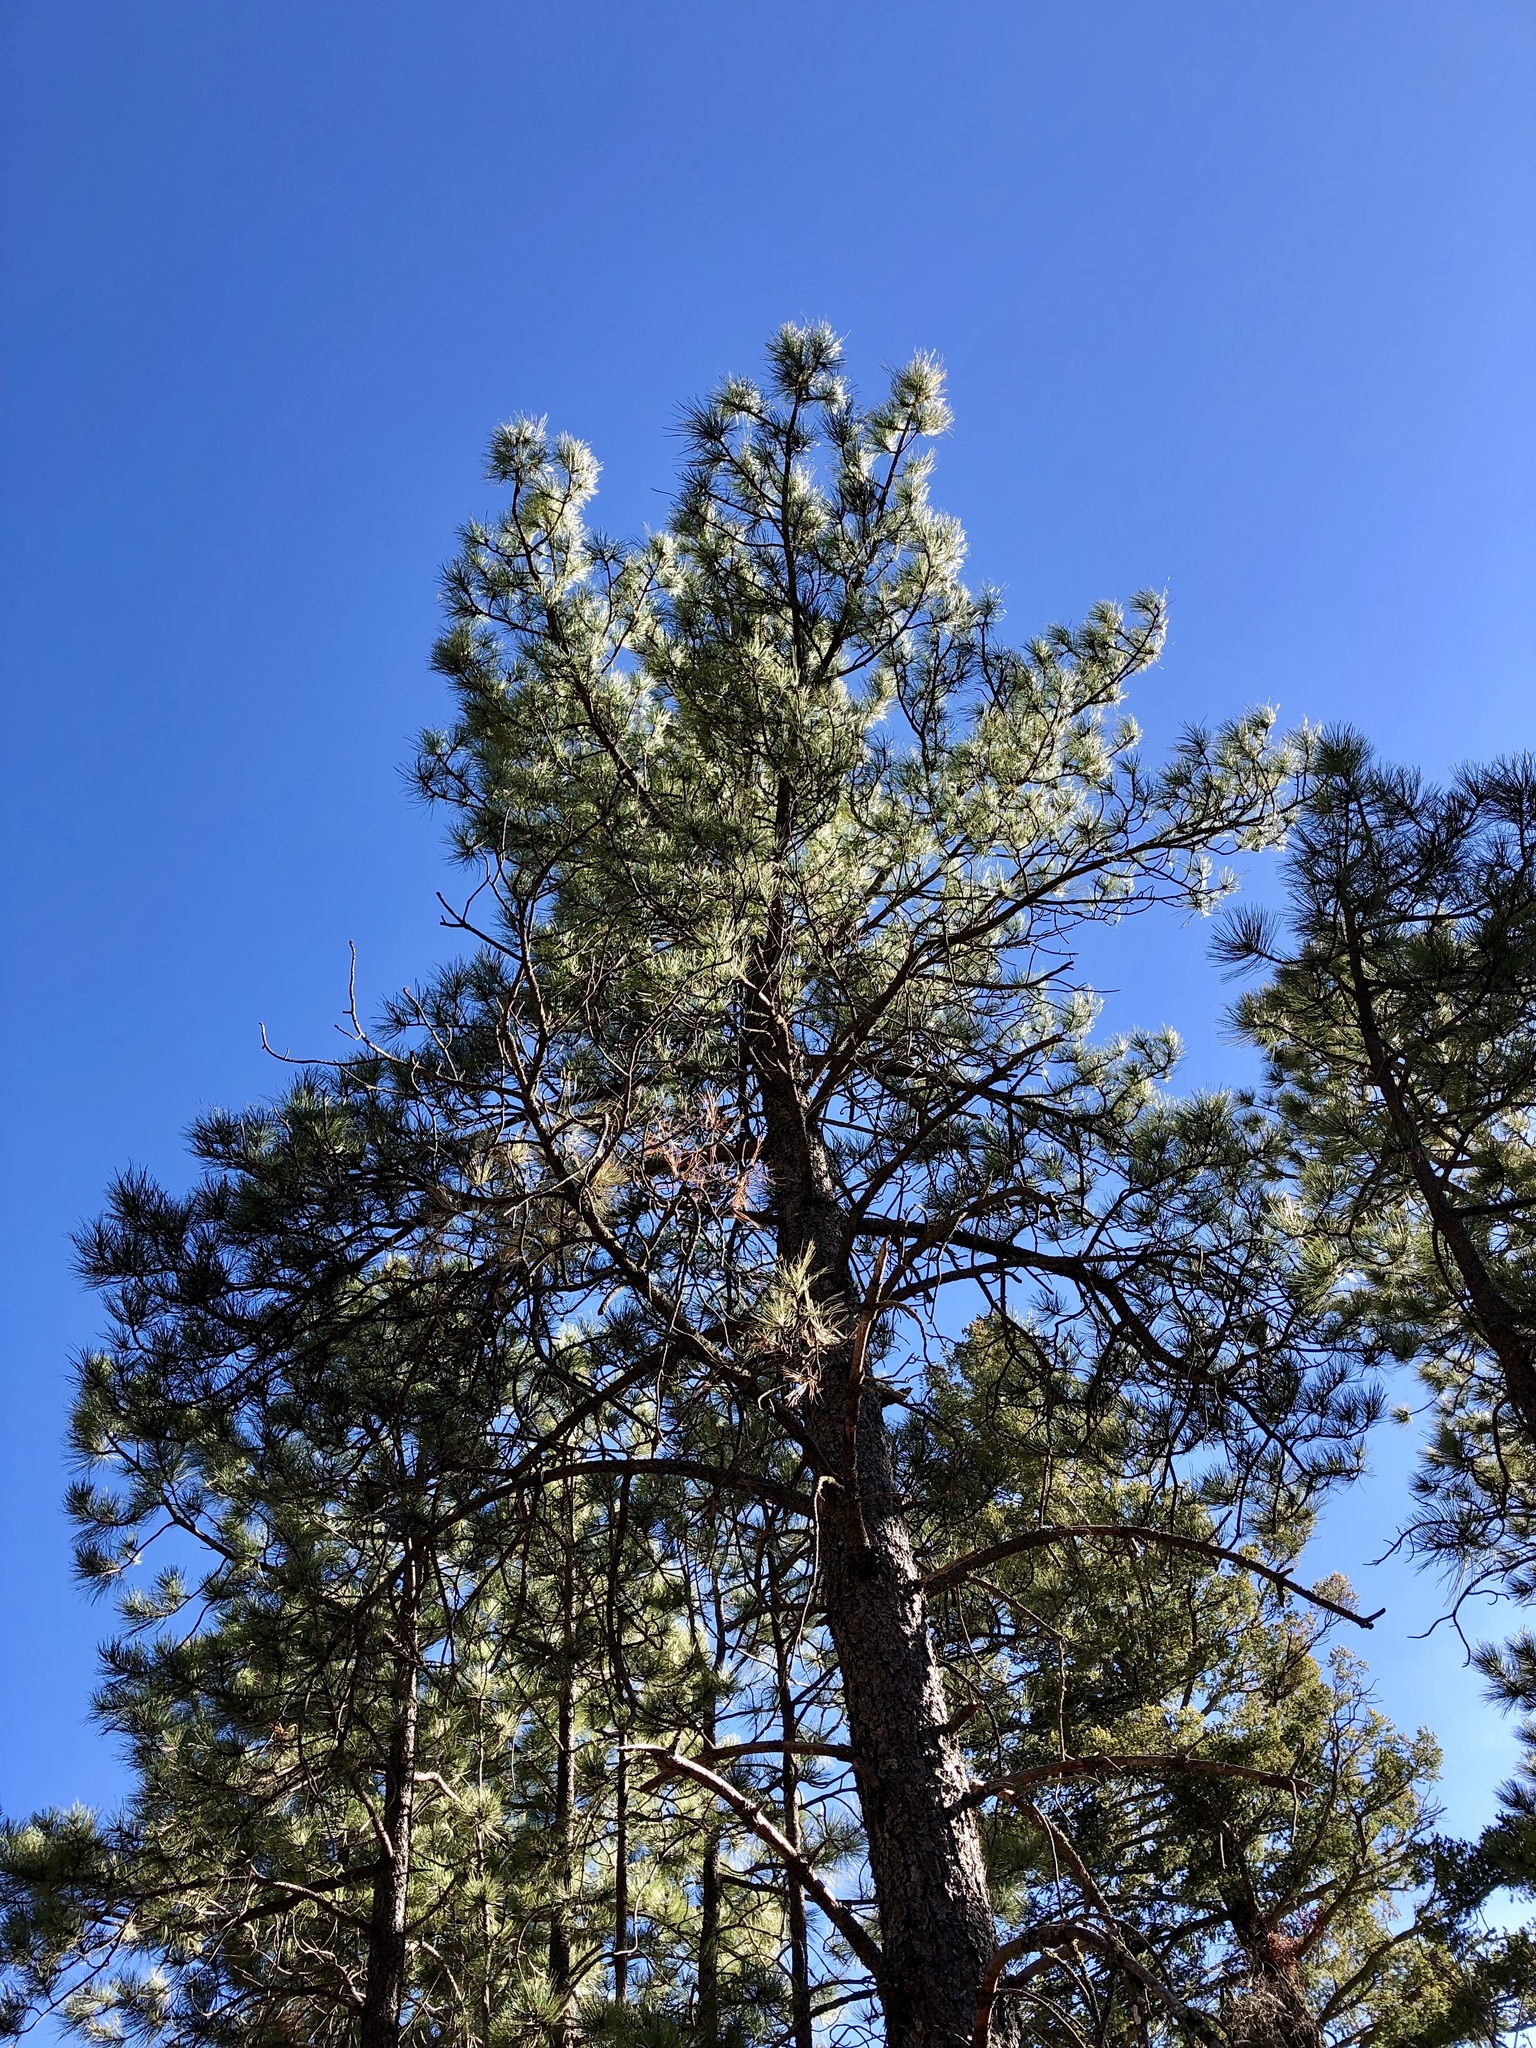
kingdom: Plantae
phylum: Tracheophyta
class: Pinopsida
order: Pinales
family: Pinaceae
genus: Pinus
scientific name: Pinus ponderosa
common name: Western yellow-pine
